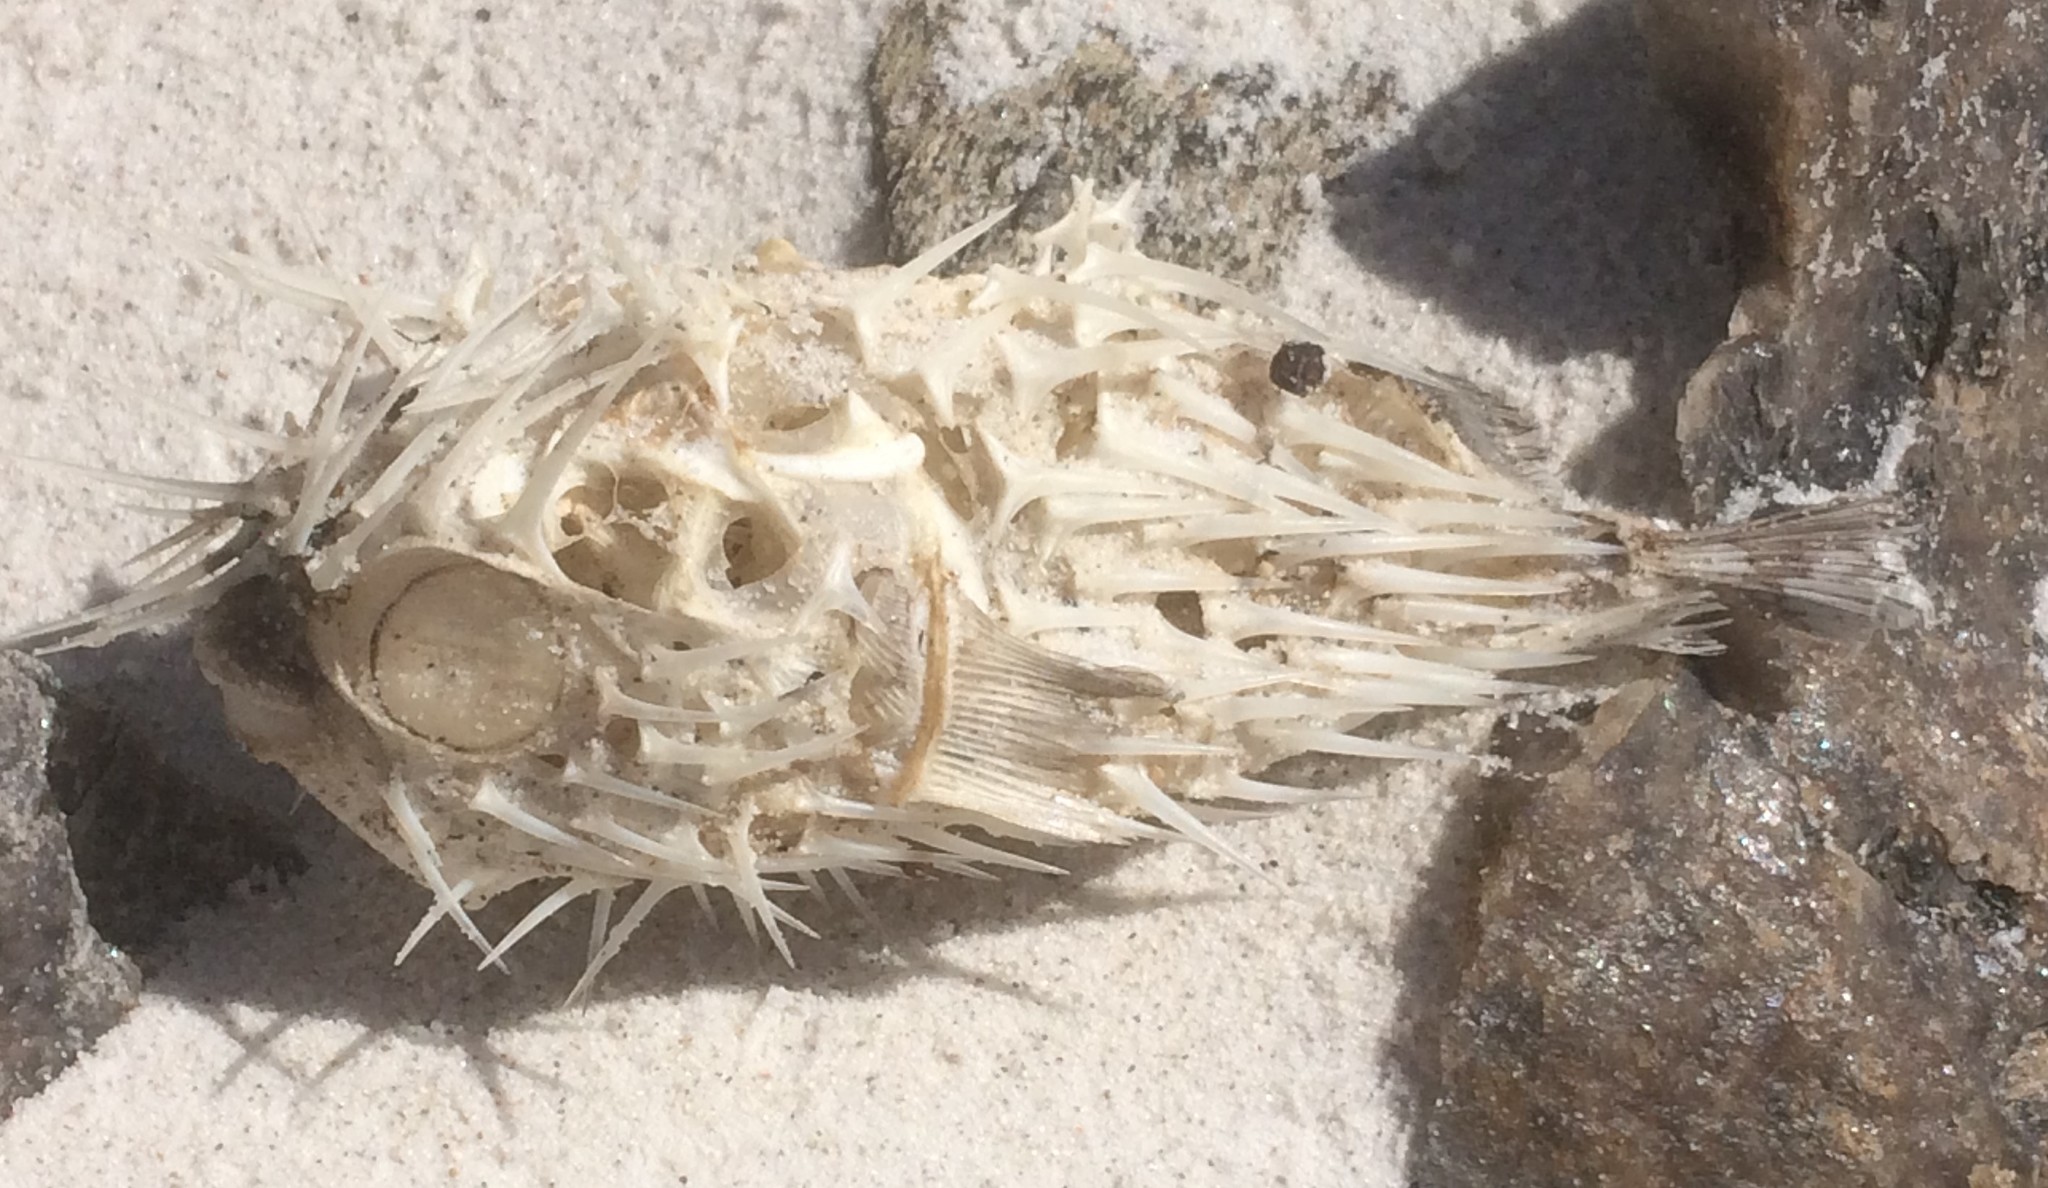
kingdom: Animalia
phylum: Chordata
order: Tetraodontiformes
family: Diodontidae
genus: Diodon
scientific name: Diodon nicthemerus
